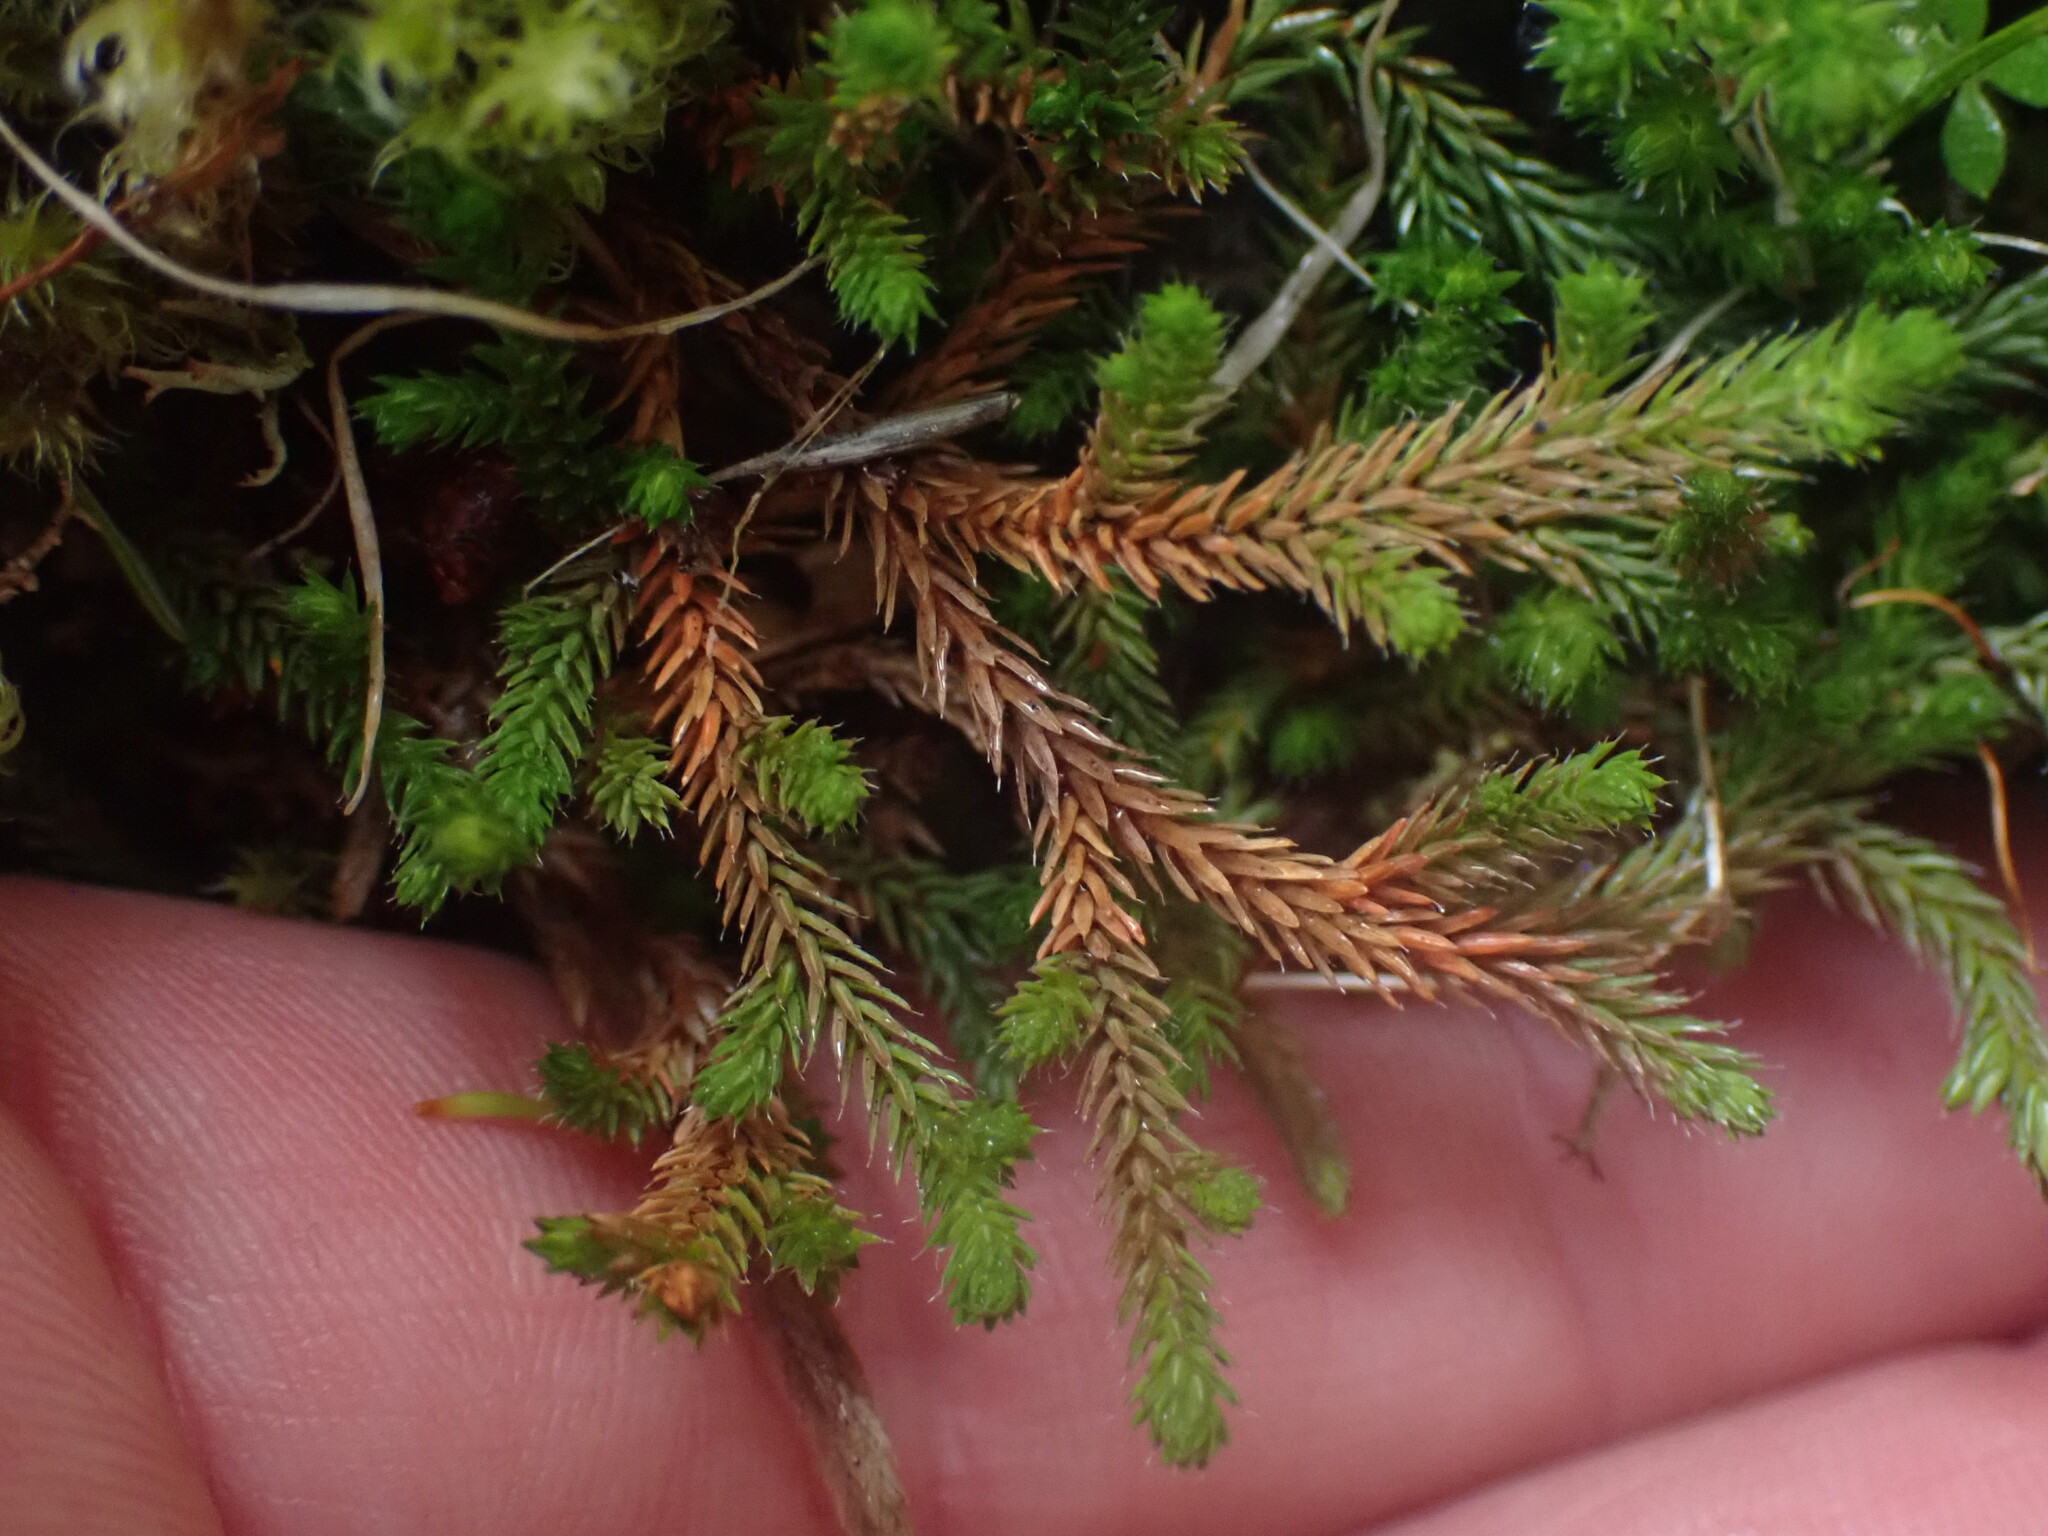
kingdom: Plantae
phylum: Tracheophyta
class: Lycopodiopsida
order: Selaginellales
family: Selaginellaceae
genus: Selaginella
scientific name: Selaginella wallacei
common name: Wallace's selaginella
